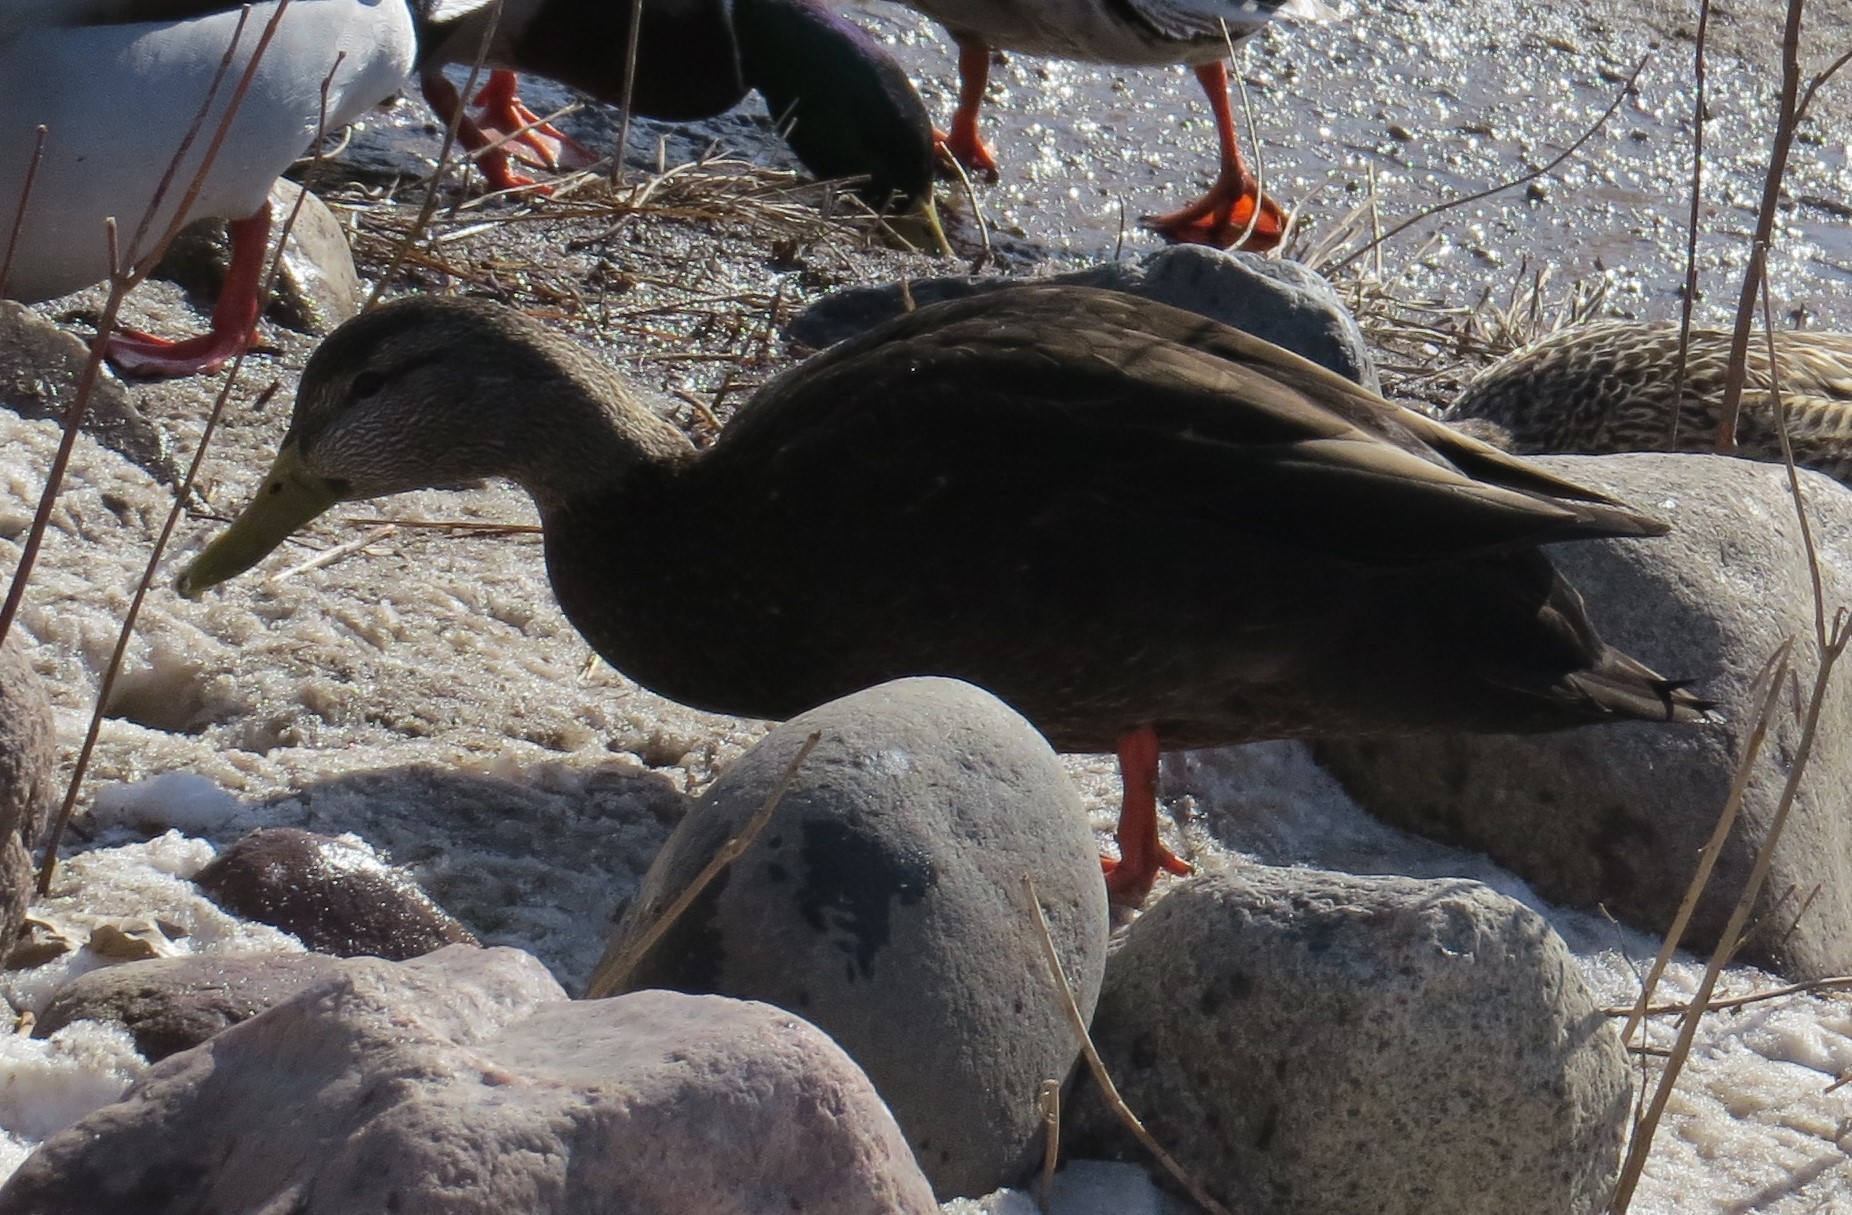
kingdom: Animalia
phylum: Chordata
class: Aves
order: Anseriformes
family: Anatidae
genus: Anas
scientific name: Anas rubripes
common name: American black duck
